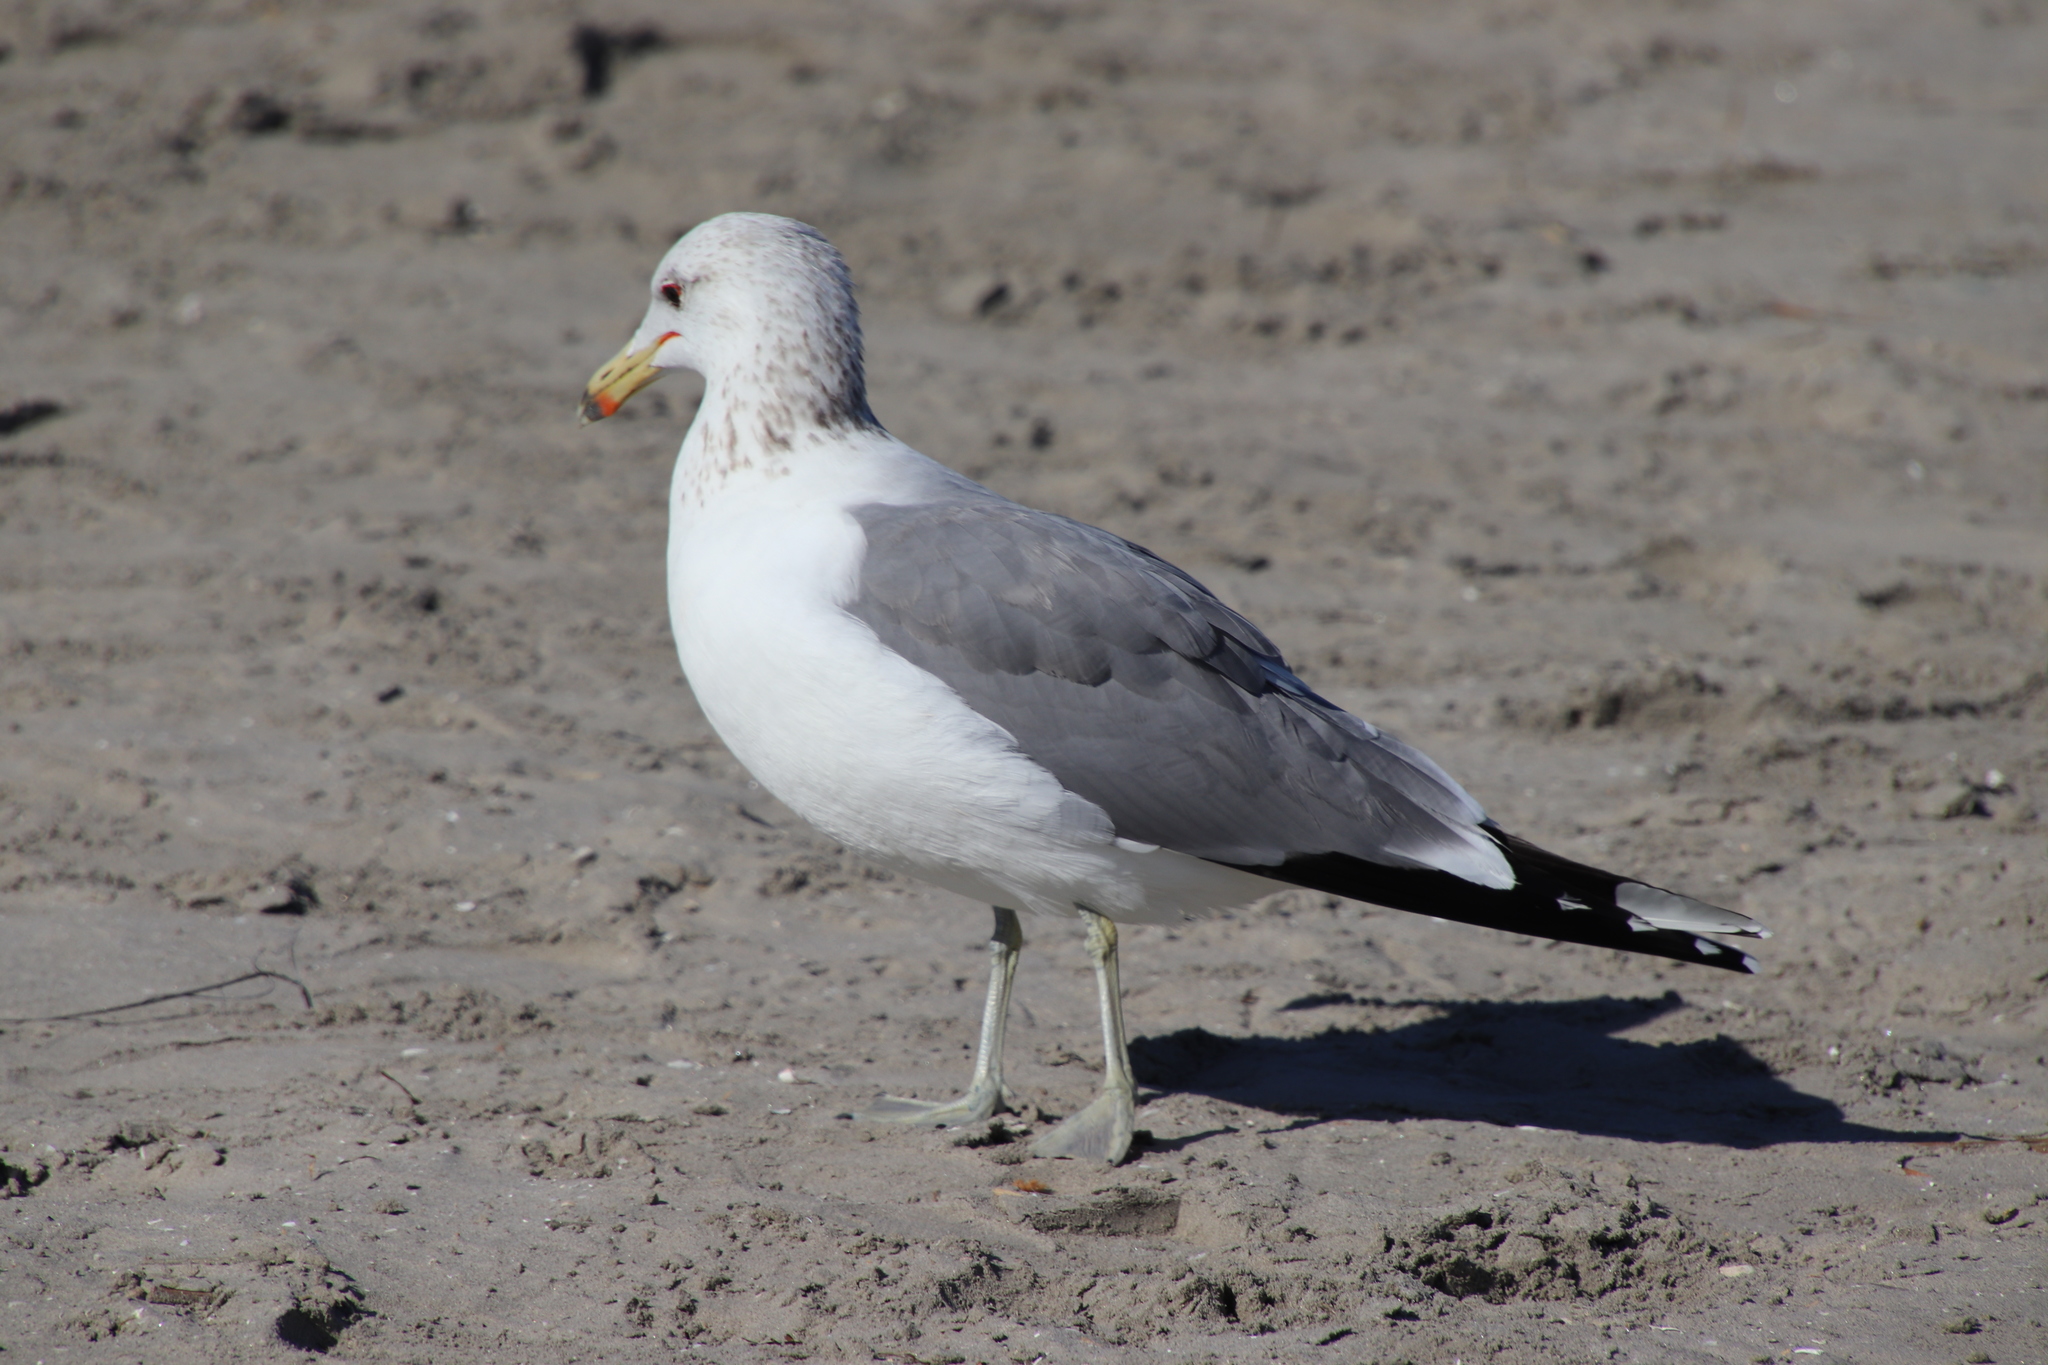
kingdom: Animalia
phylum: Chordata
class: Aves
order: Charadriiformes
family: Laridae
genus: Larus
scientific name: Larus californicus
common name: California gull
